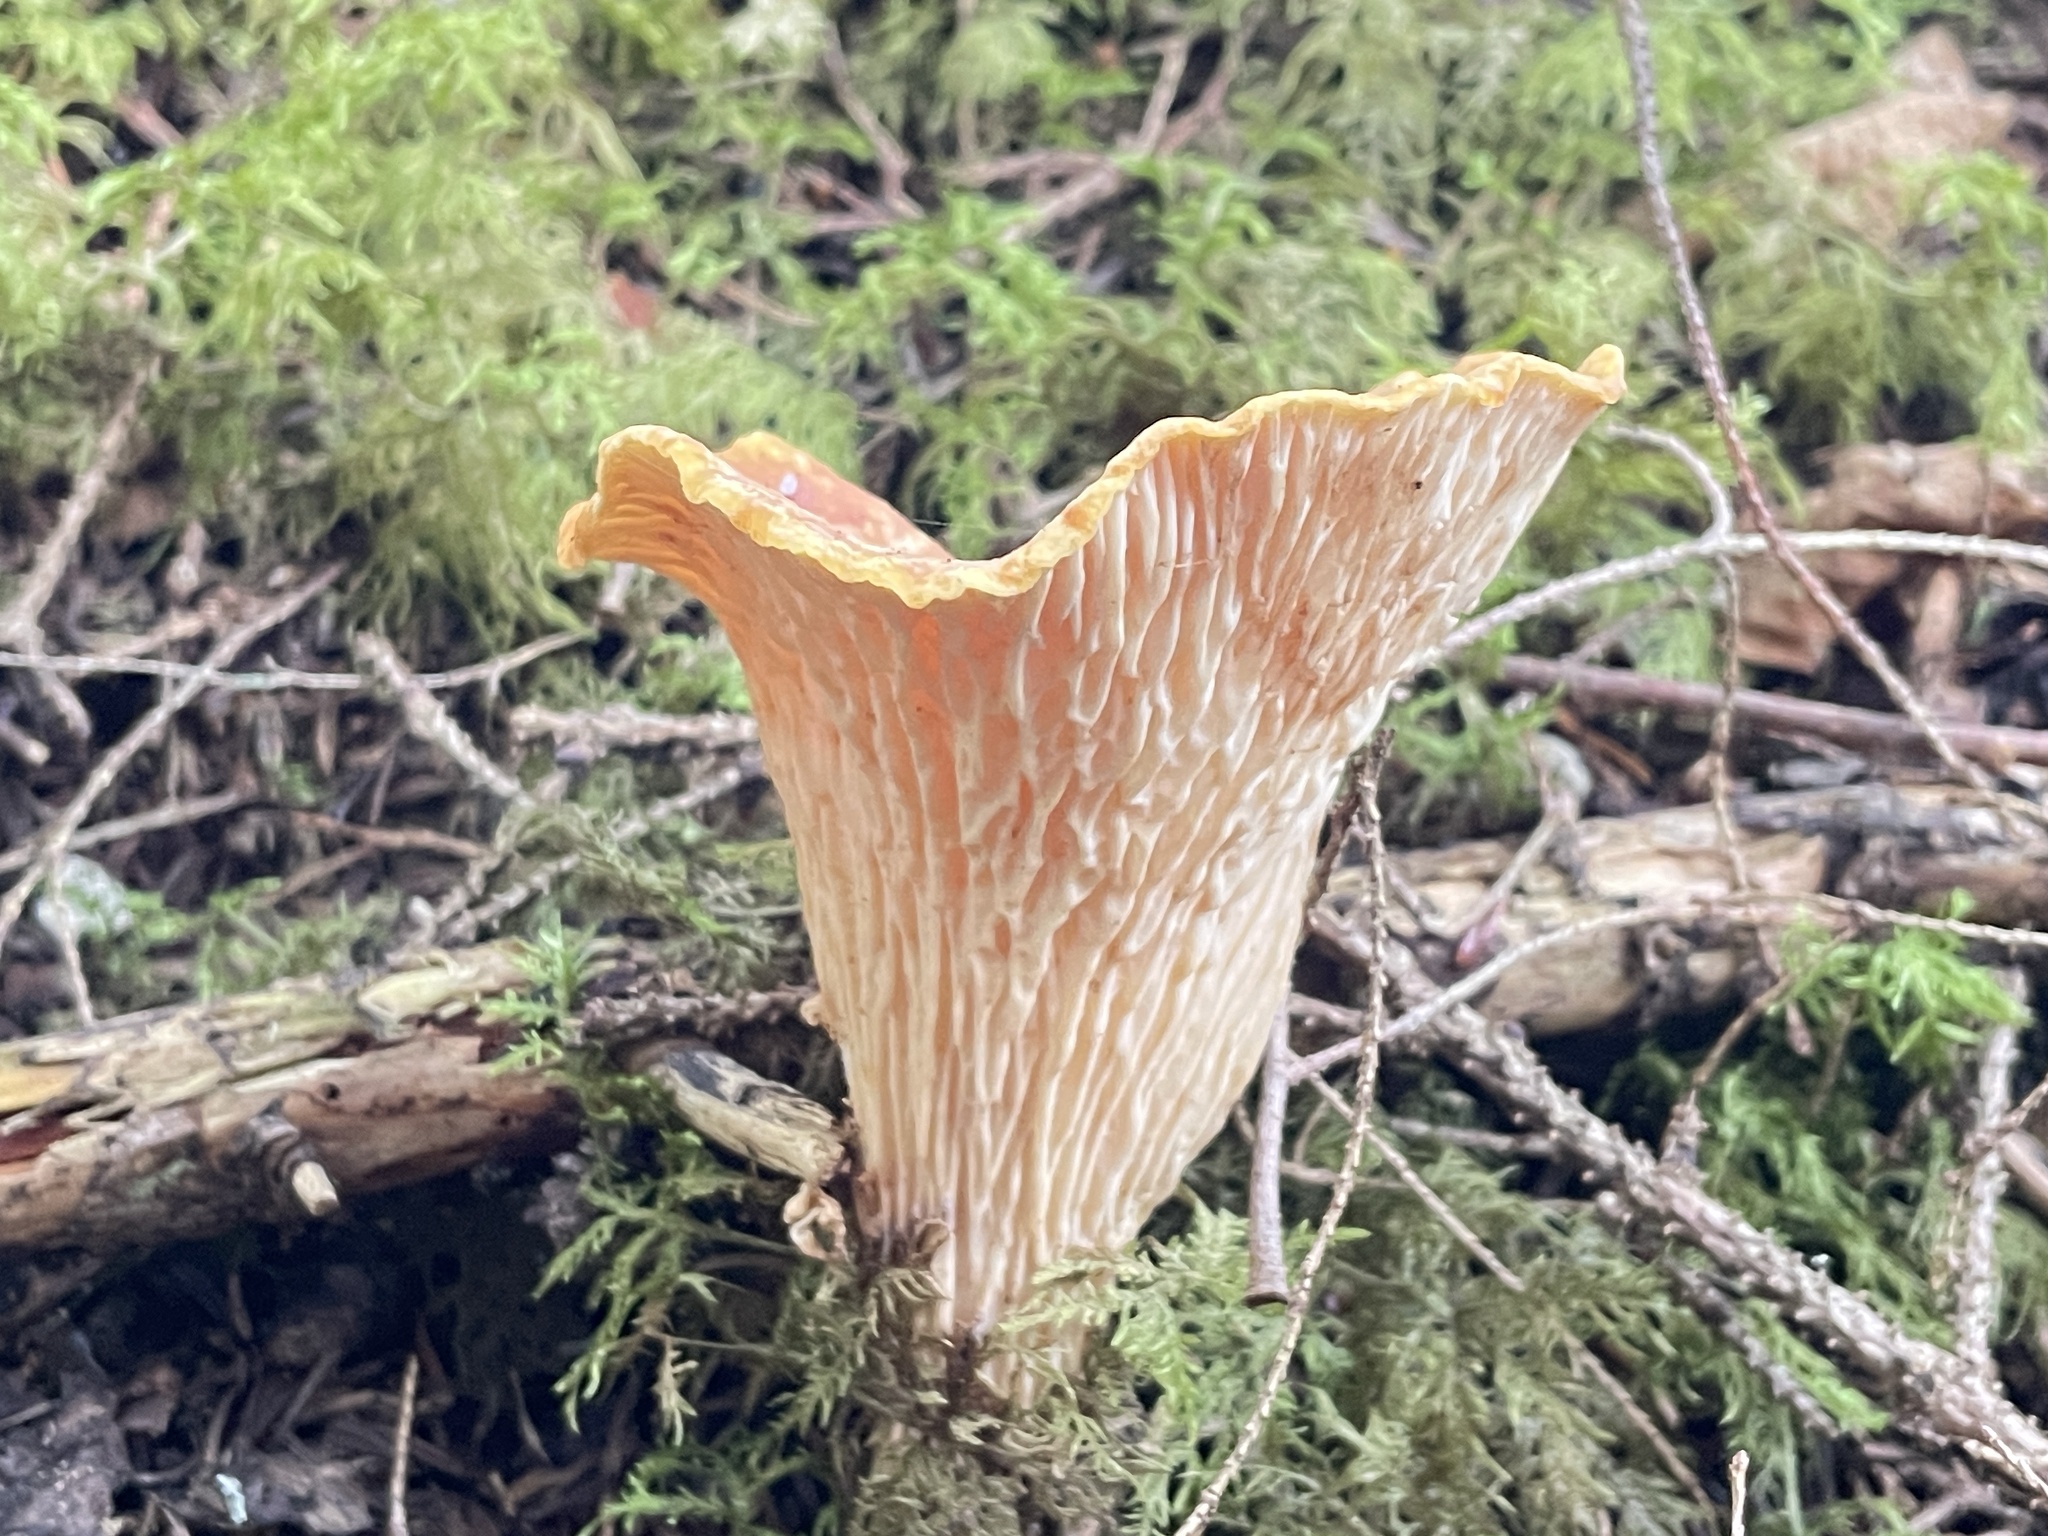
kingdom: Fungi
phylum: Basidiomycota
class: Agaricomycetes
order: Gomphales
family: Gomphaceae
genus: Turbinellus
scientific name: Turbinellus floccosus
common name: Scaly chanterelle
